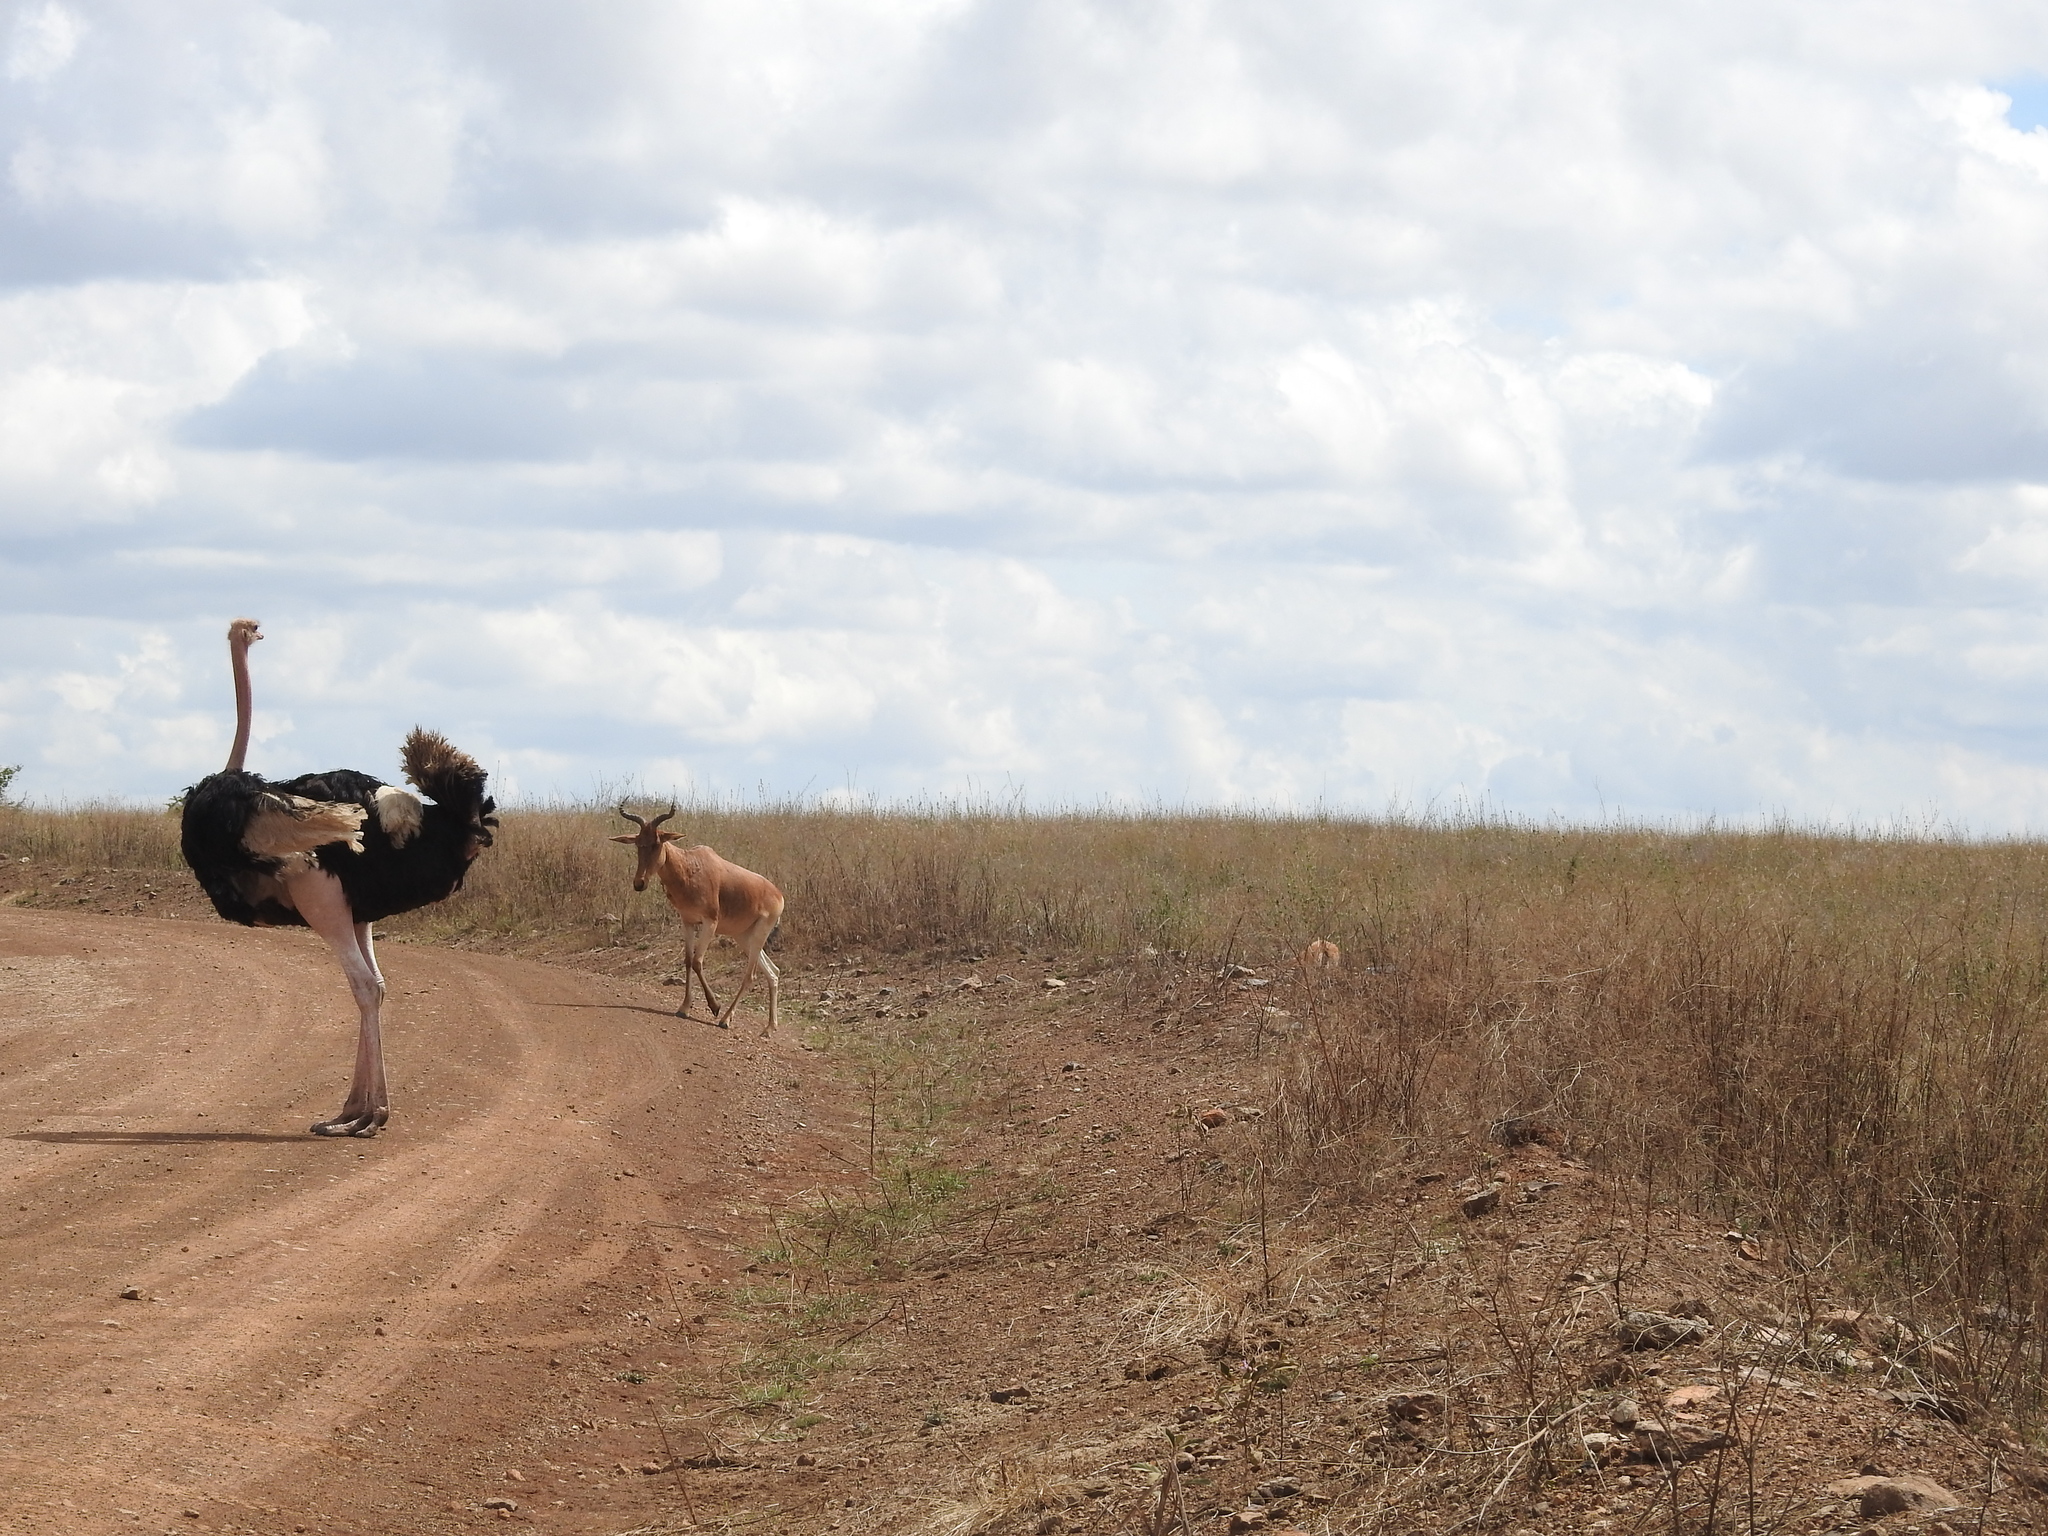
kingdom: Animalia
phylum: Chordata
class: Mammalia
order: Artiodactyla
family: Bovidae
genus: Alcelaphus
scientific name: Alcelaphus buselaphus
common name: Hartebeest
